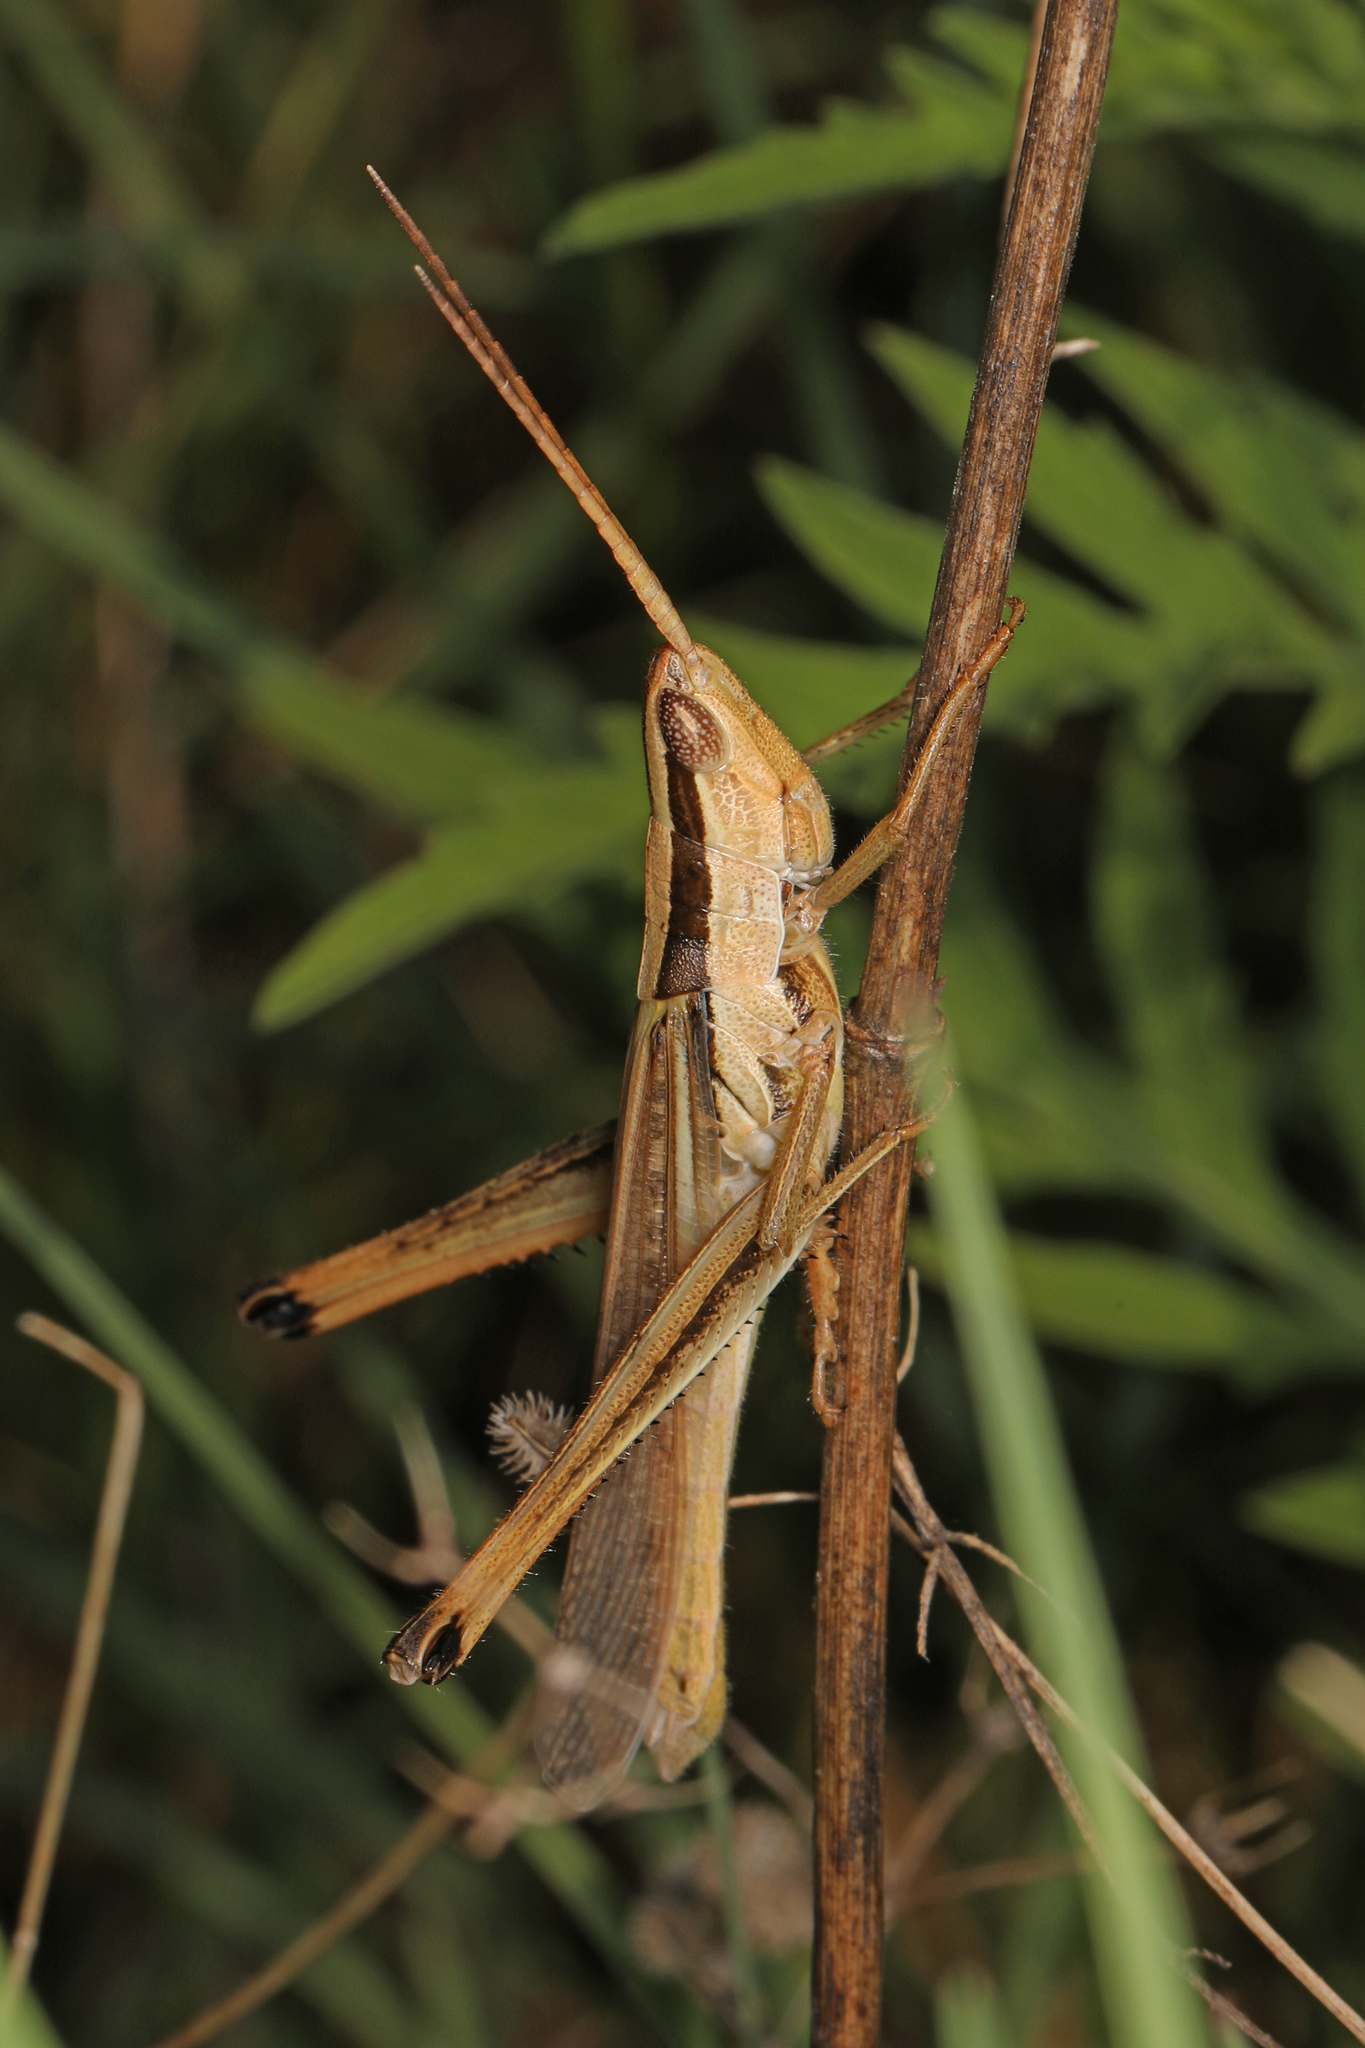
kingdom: Animalia
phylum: Arthropoda
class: Insecta
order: Orthoptera
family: Acrididae
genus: Mermiria
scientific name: Mermiria bivittata
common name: Two-striped mermiria grasshopper
